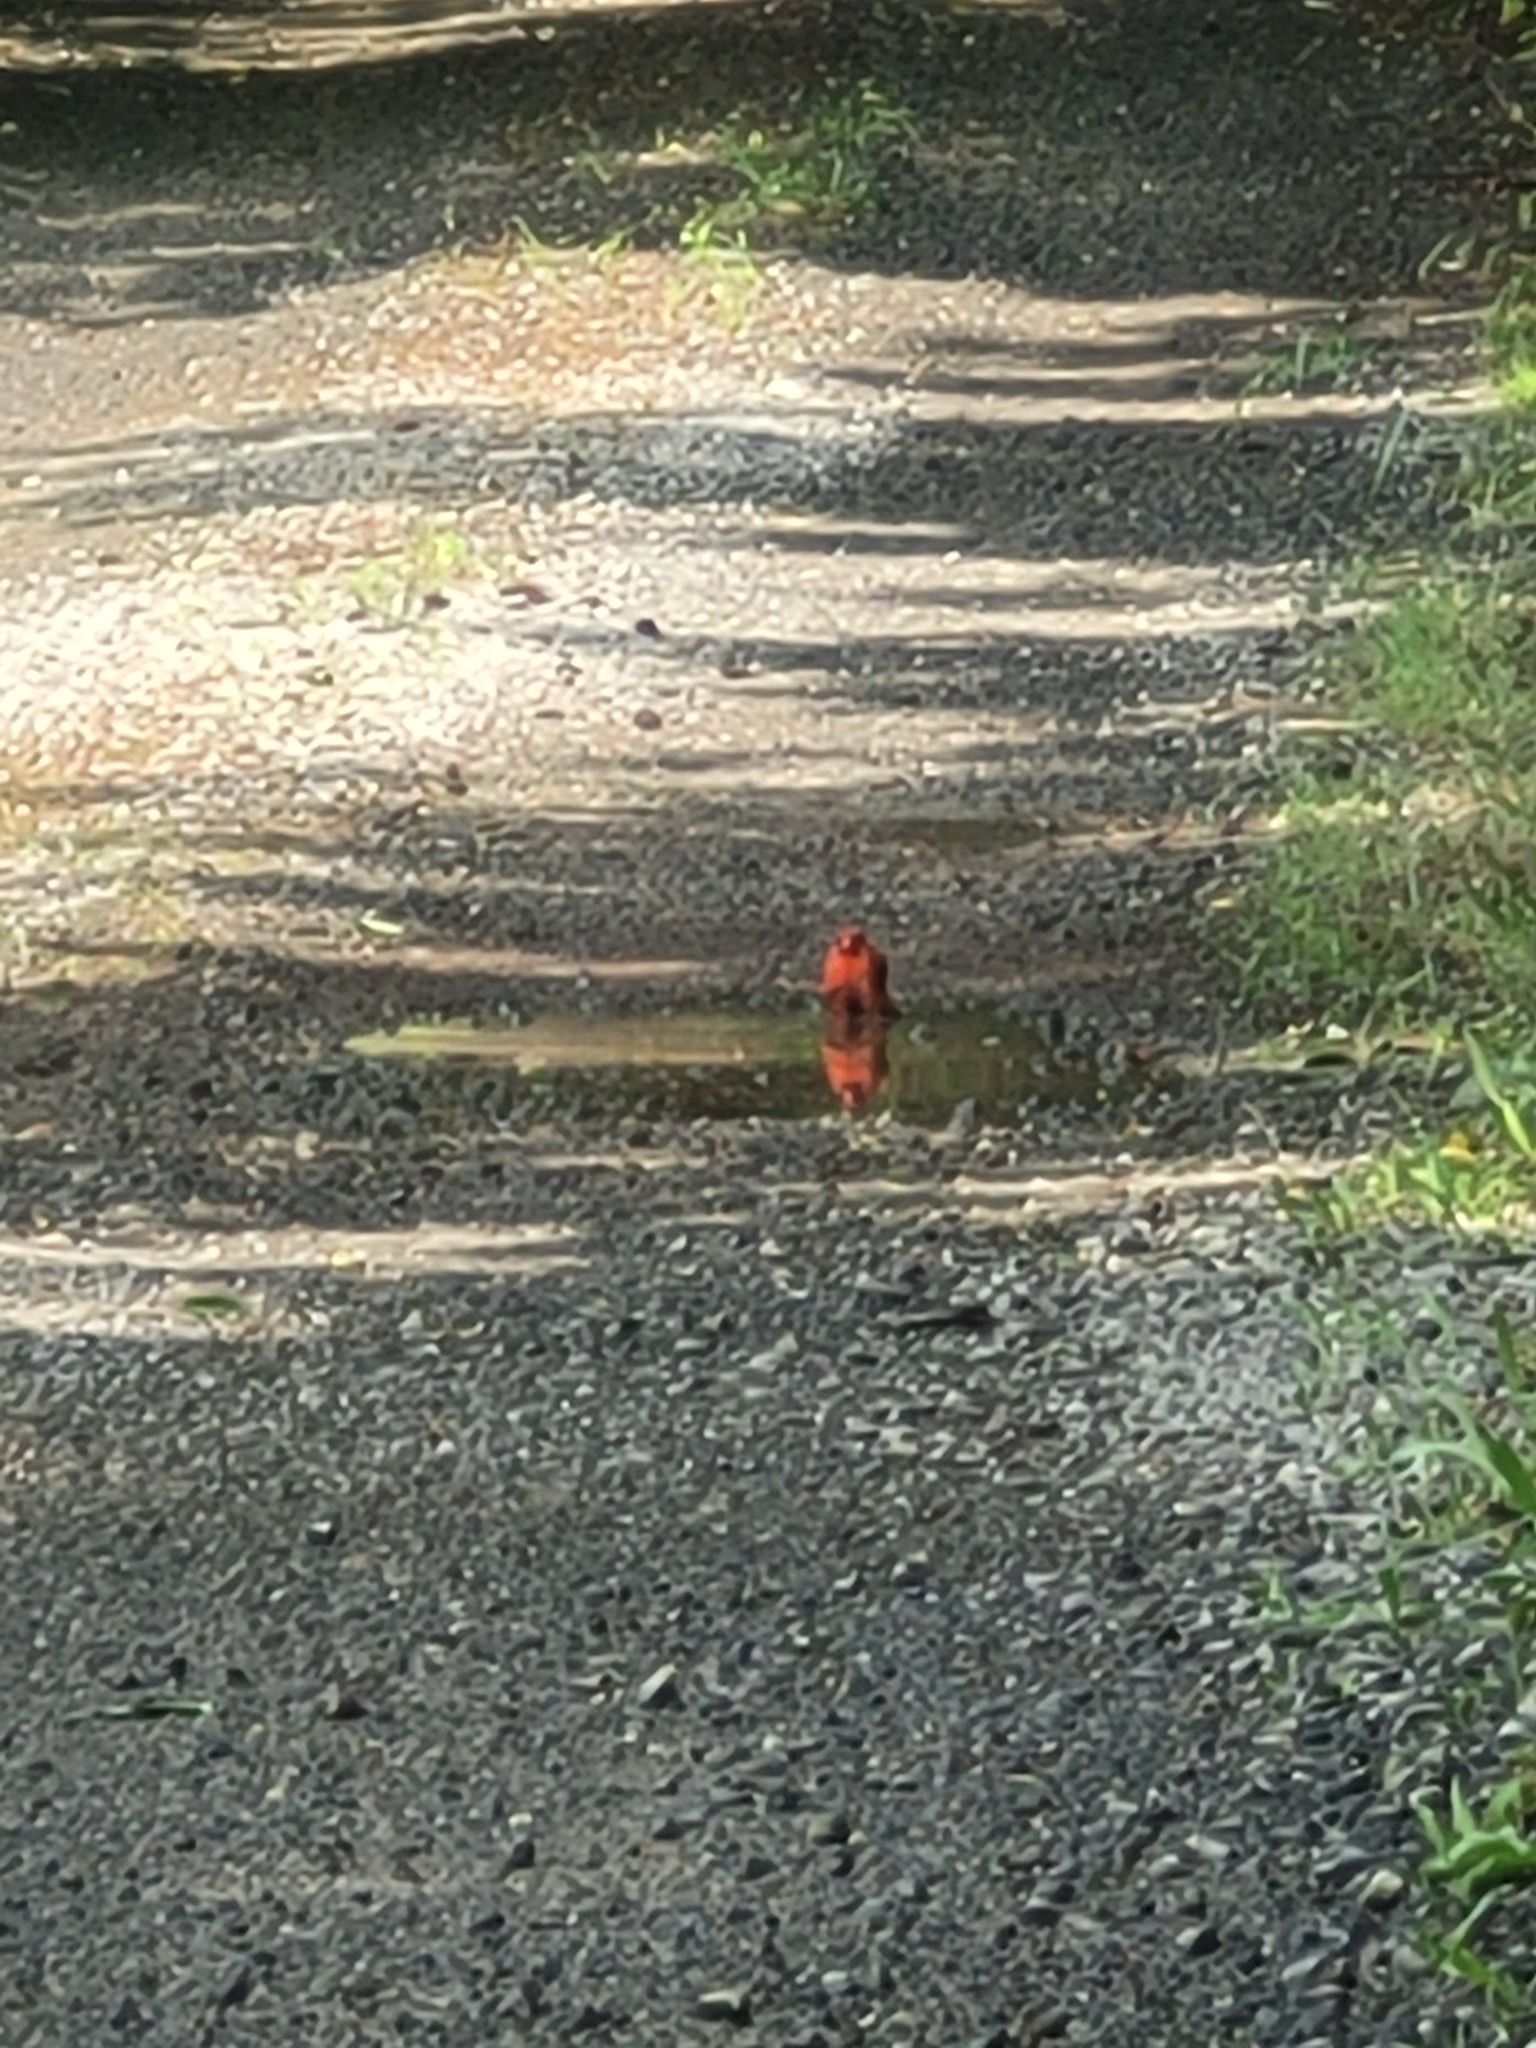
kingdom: Animalia
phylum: Chordata
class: Aves
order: Passeriformes
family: Cardinalidae
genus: Cardinalis
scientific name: Cardinalis cardinalis
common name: Northern cardinal
